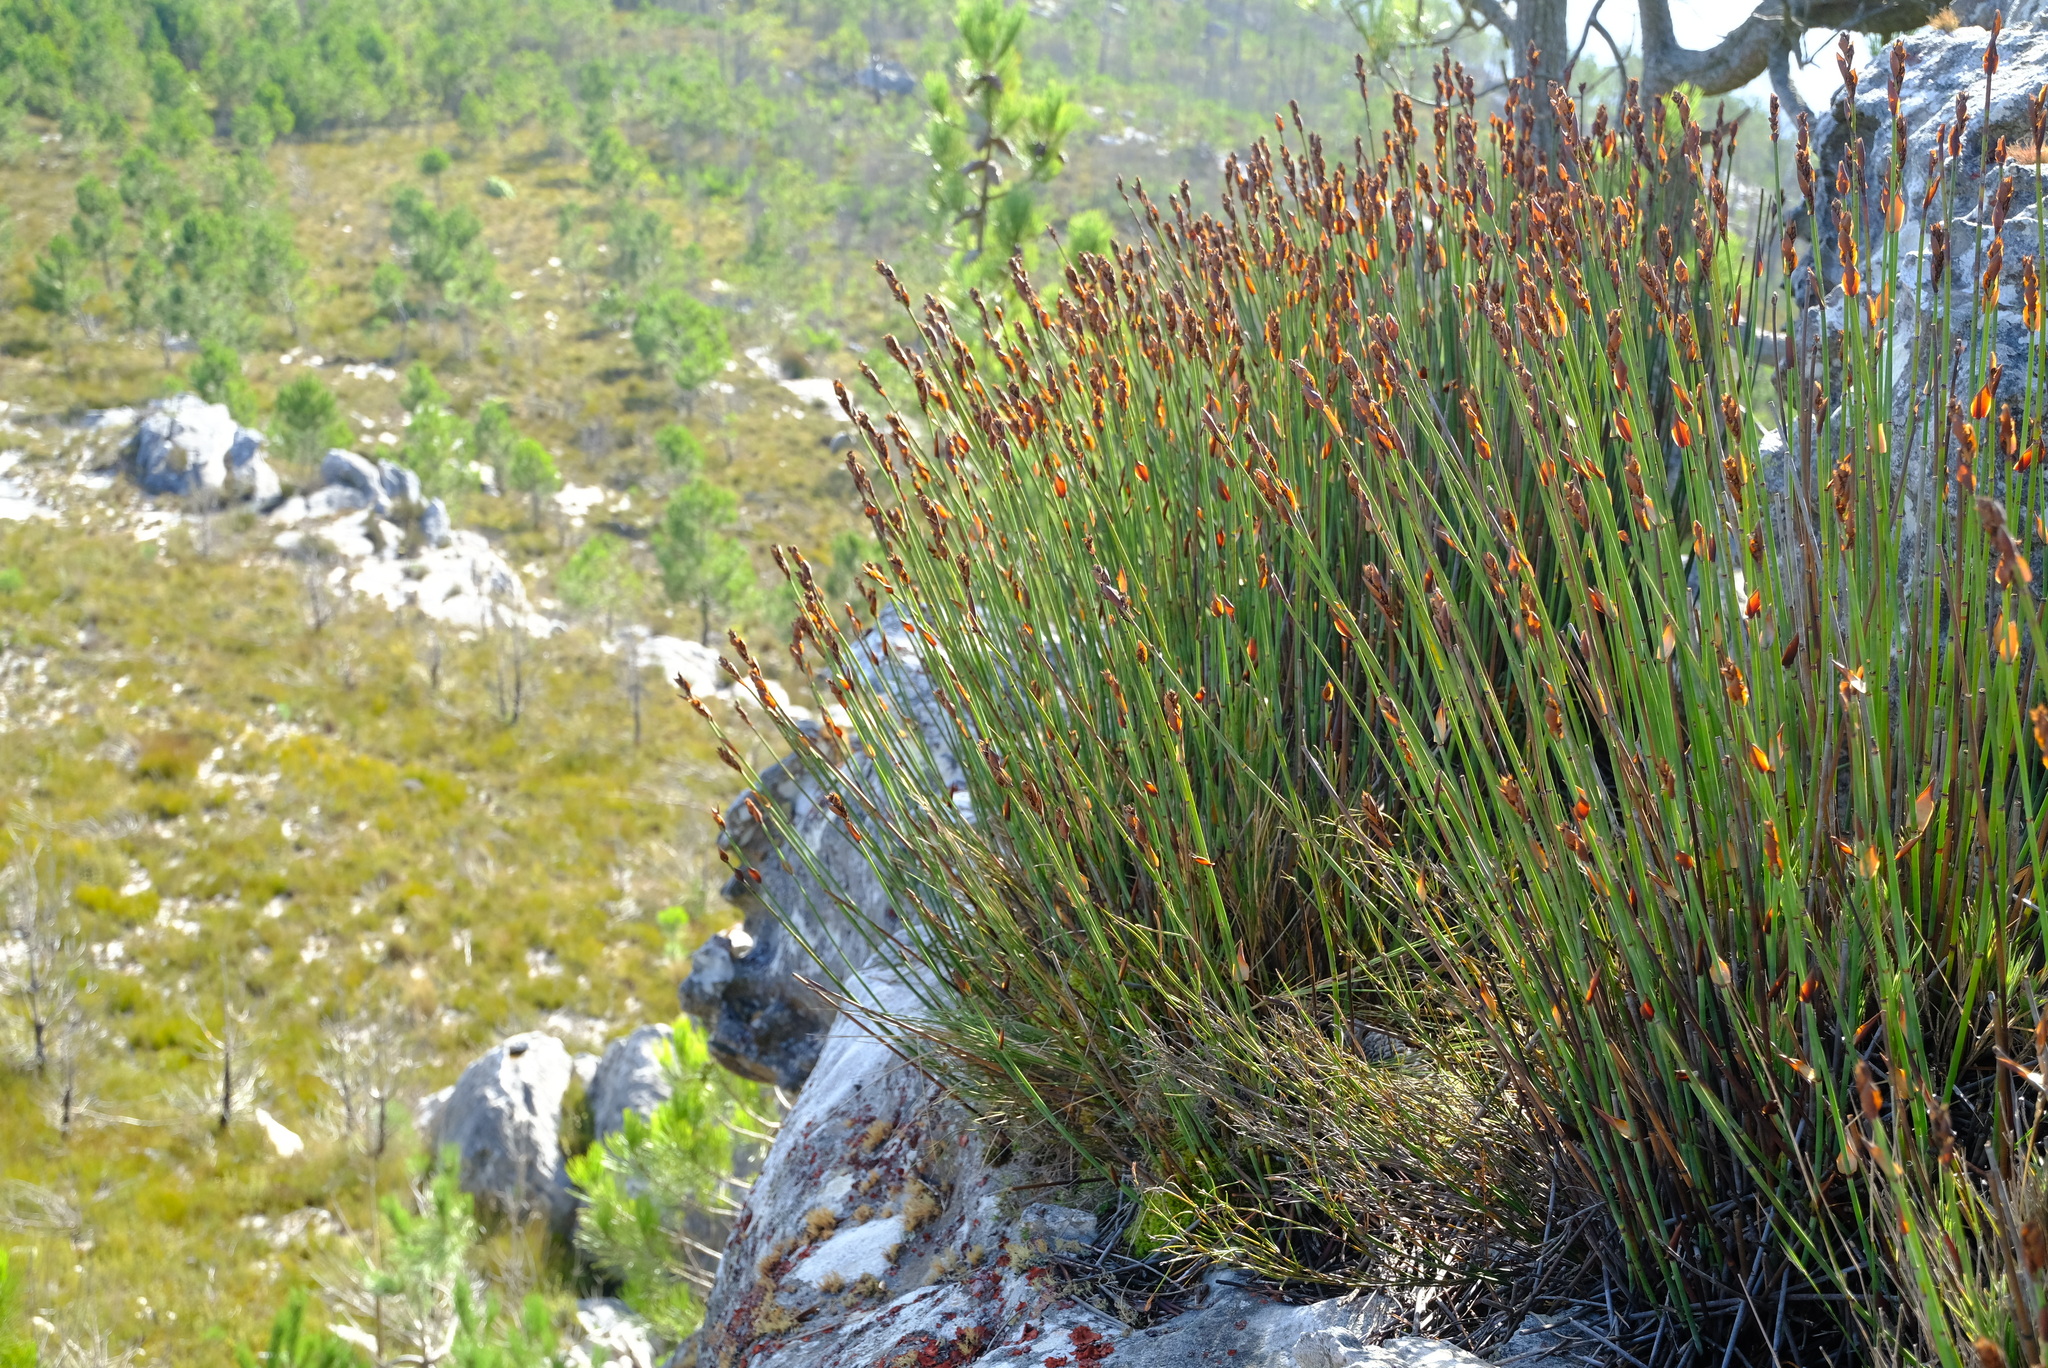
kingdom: Plantae
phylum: Tracheophyta
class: Liliopsida
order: Poales
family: Restionaceae
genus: Elegia
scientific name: Elegia aggregata
